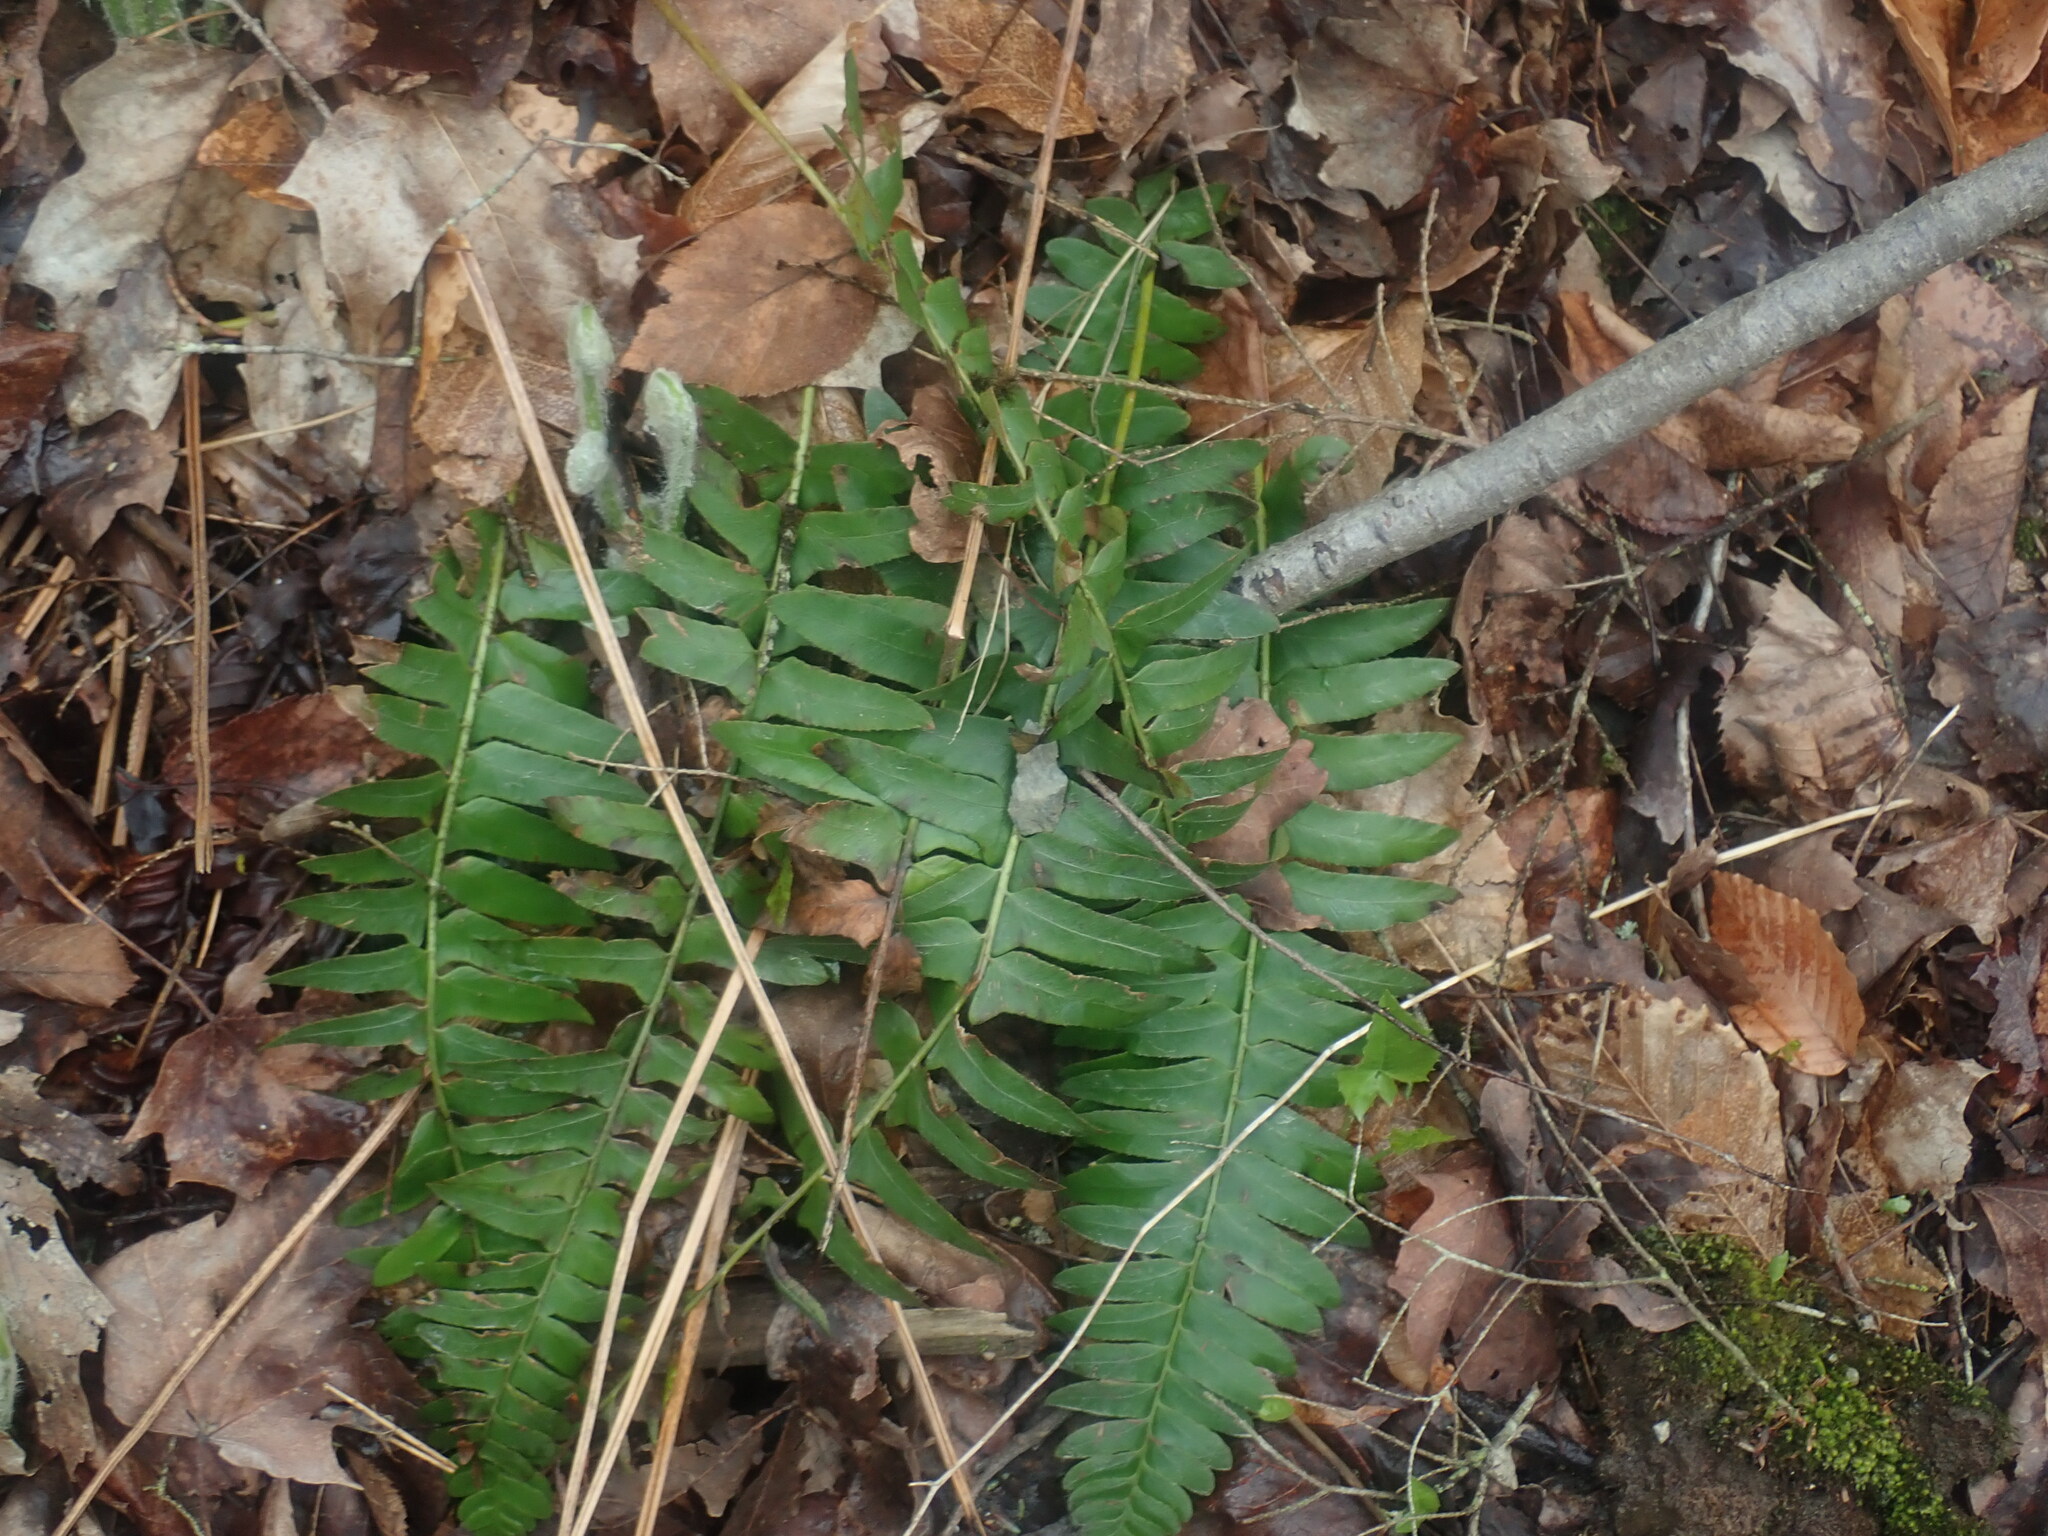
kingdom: Plantae
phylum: Tracheophyta
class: Polypodiopsida
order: Polypodiales
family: Dryopteridaceae
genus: Polystichum
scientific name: Polystichum acrostichoides
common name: Christmas fern
